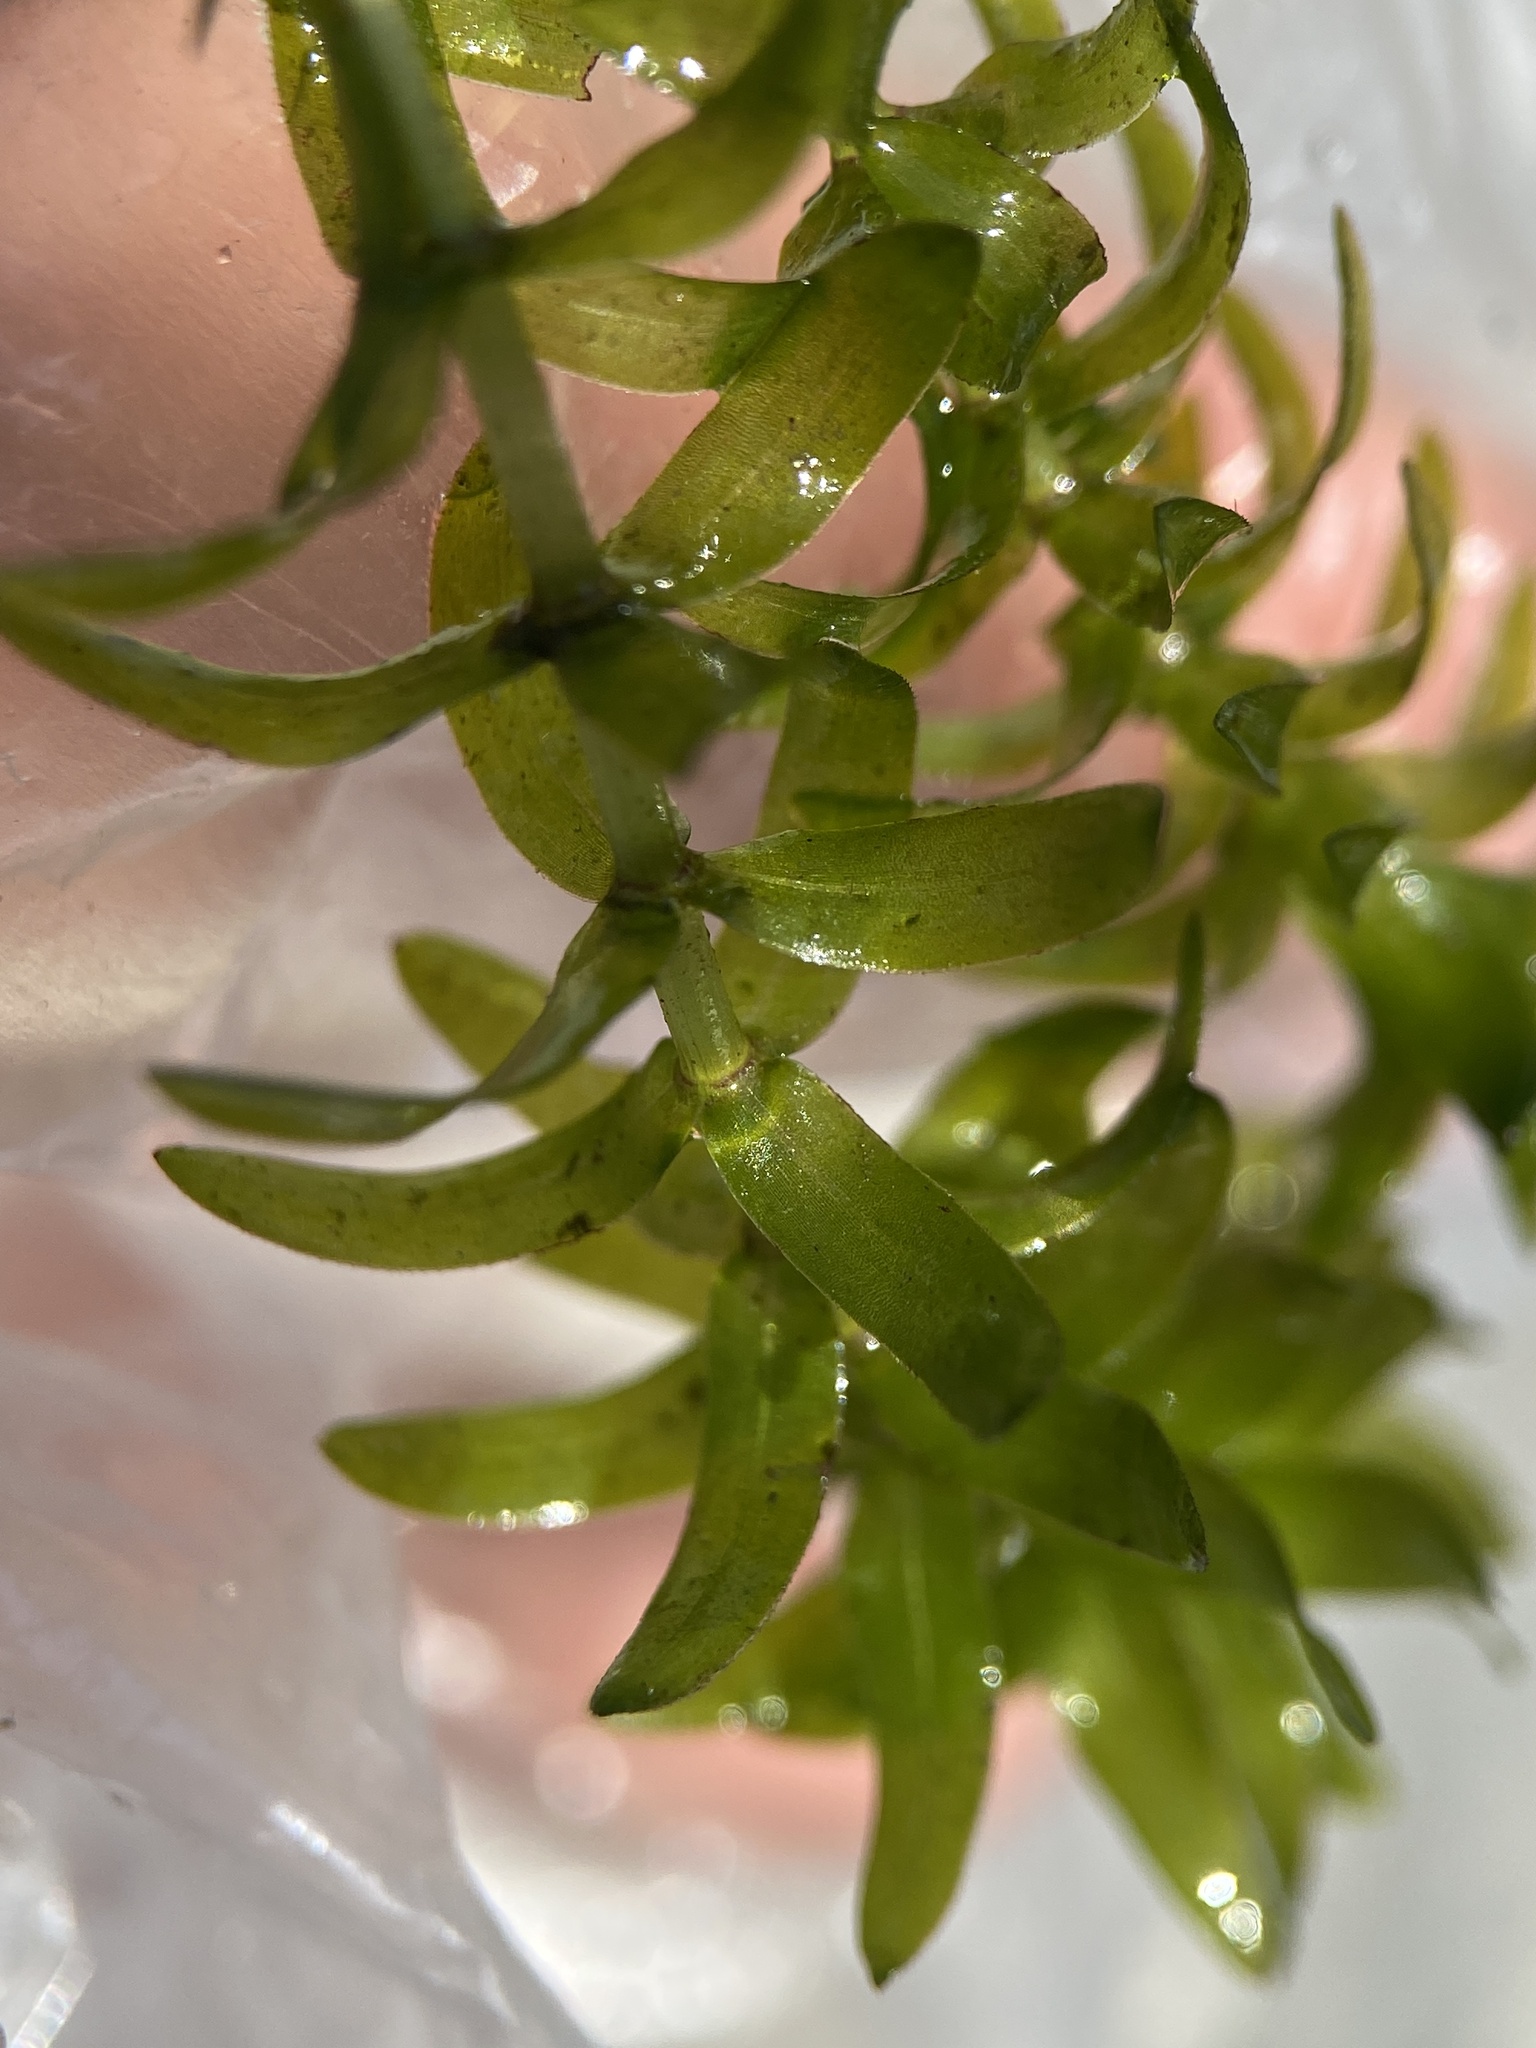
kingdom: Plantae
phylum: Tracheophyta
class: Liliopsida
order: Alismatales
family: Hydrocharitaceae
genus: Elodea
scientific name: Elodea canadensis
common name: Canadian waterweed
